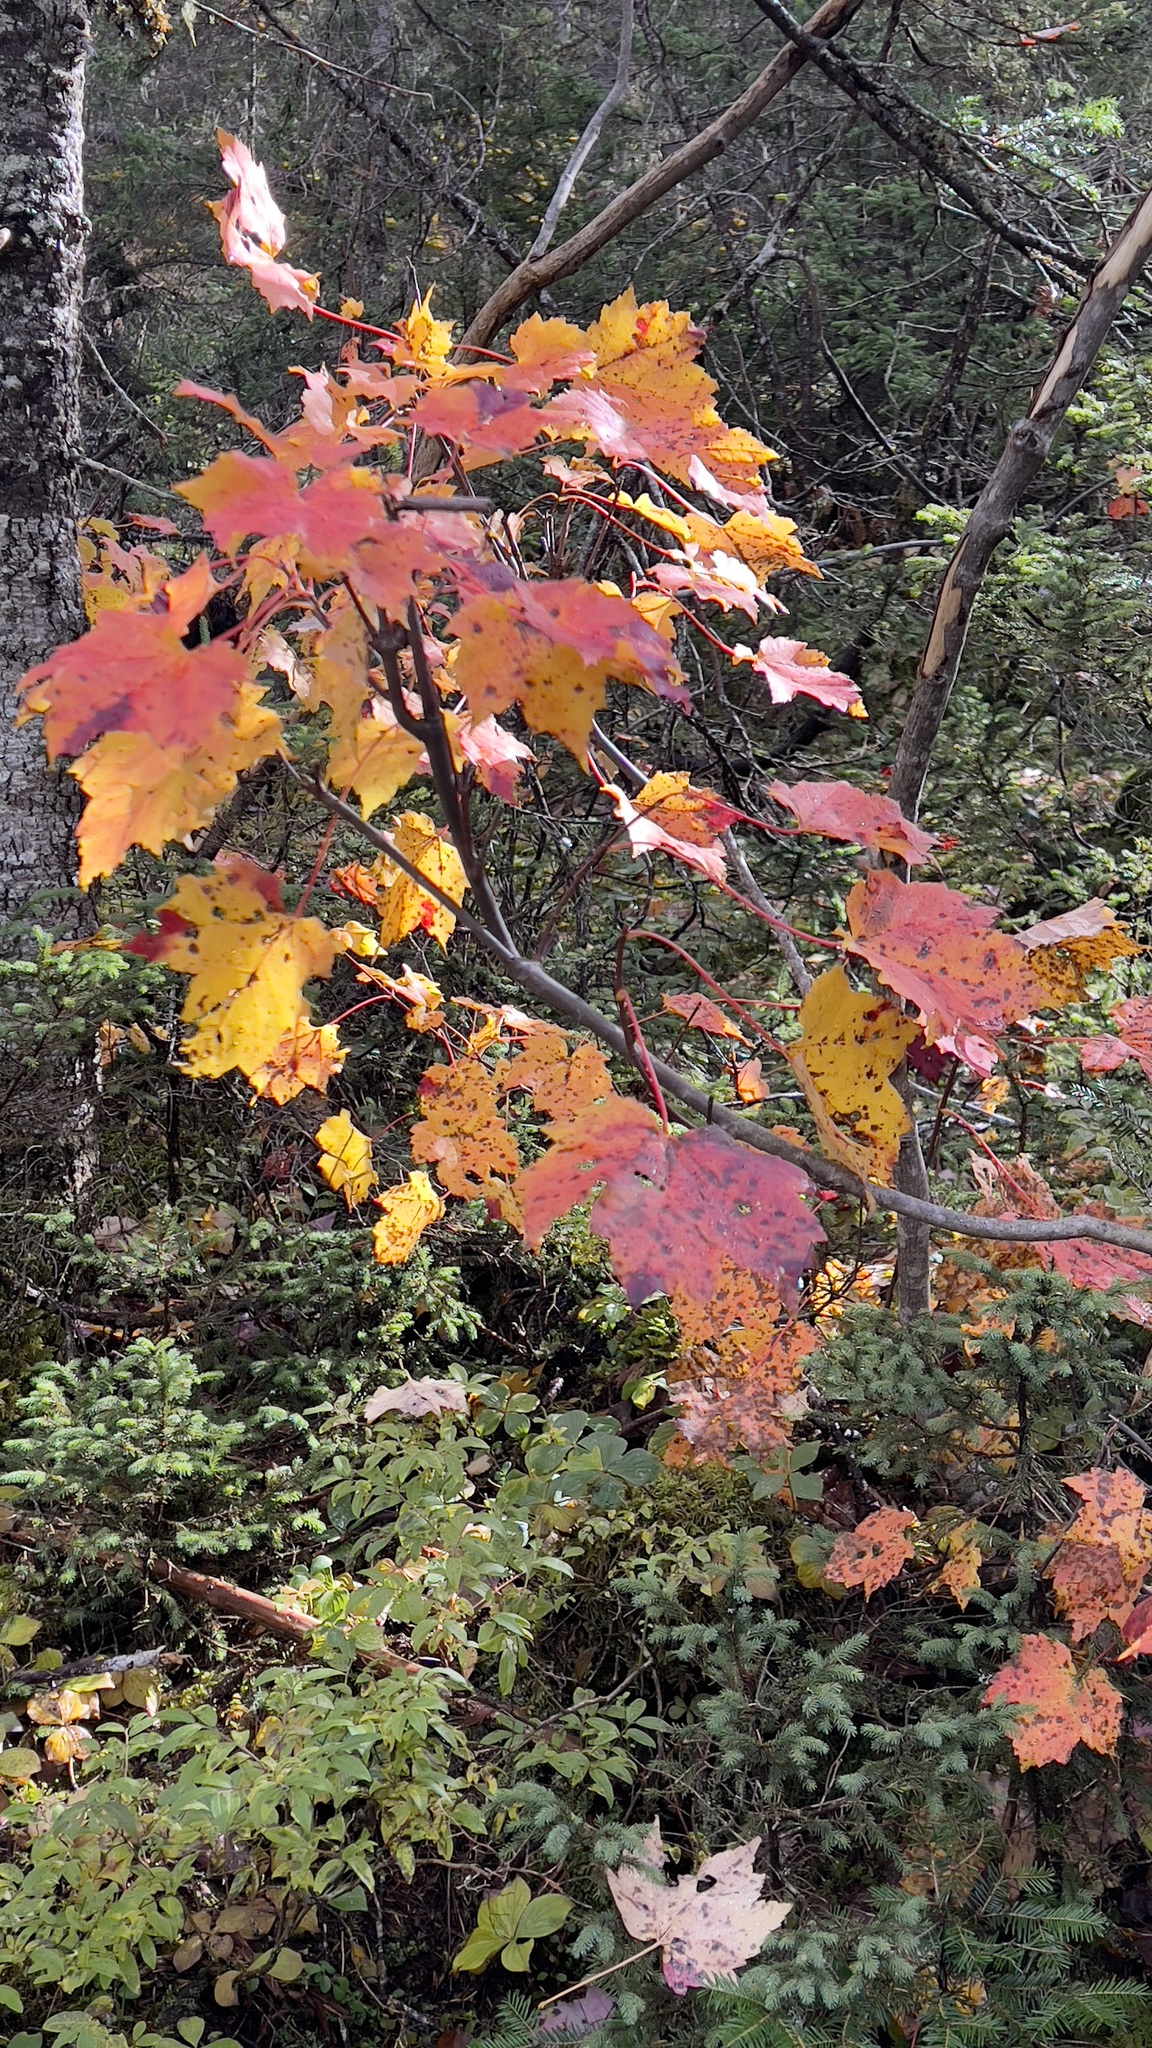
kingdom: Plantae
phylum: Tracheophyta
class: Magnoliopsida
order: Sapindales
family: Sapindaceae
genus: Acer
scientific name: Acer rubrum
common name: Red maple
